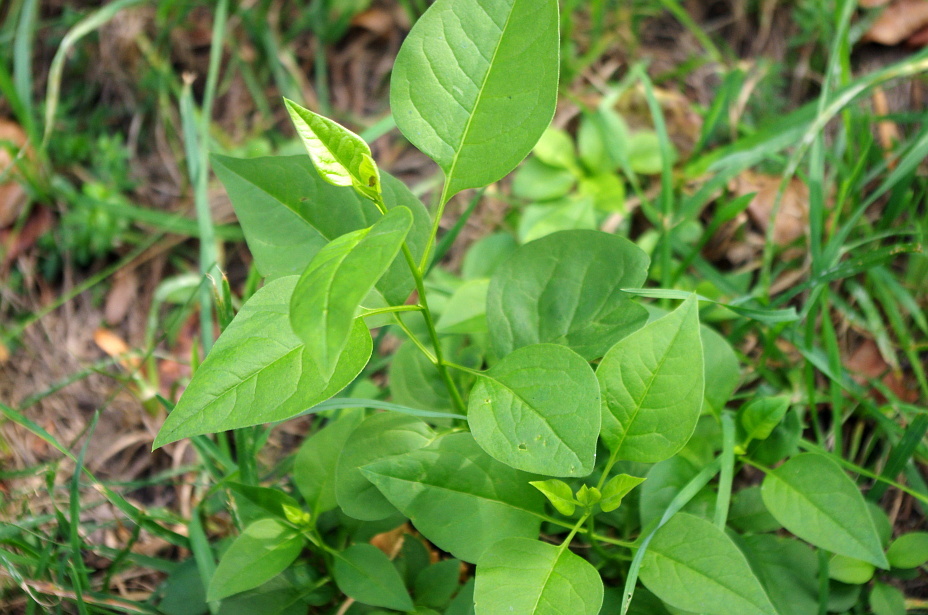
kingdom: Plantae
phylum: Tracheophyta
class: Magnoliopsida
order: Solanales
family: Solanaceae
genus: Solanum
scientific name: Solanum dulcamara
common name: Climbing nightshade
